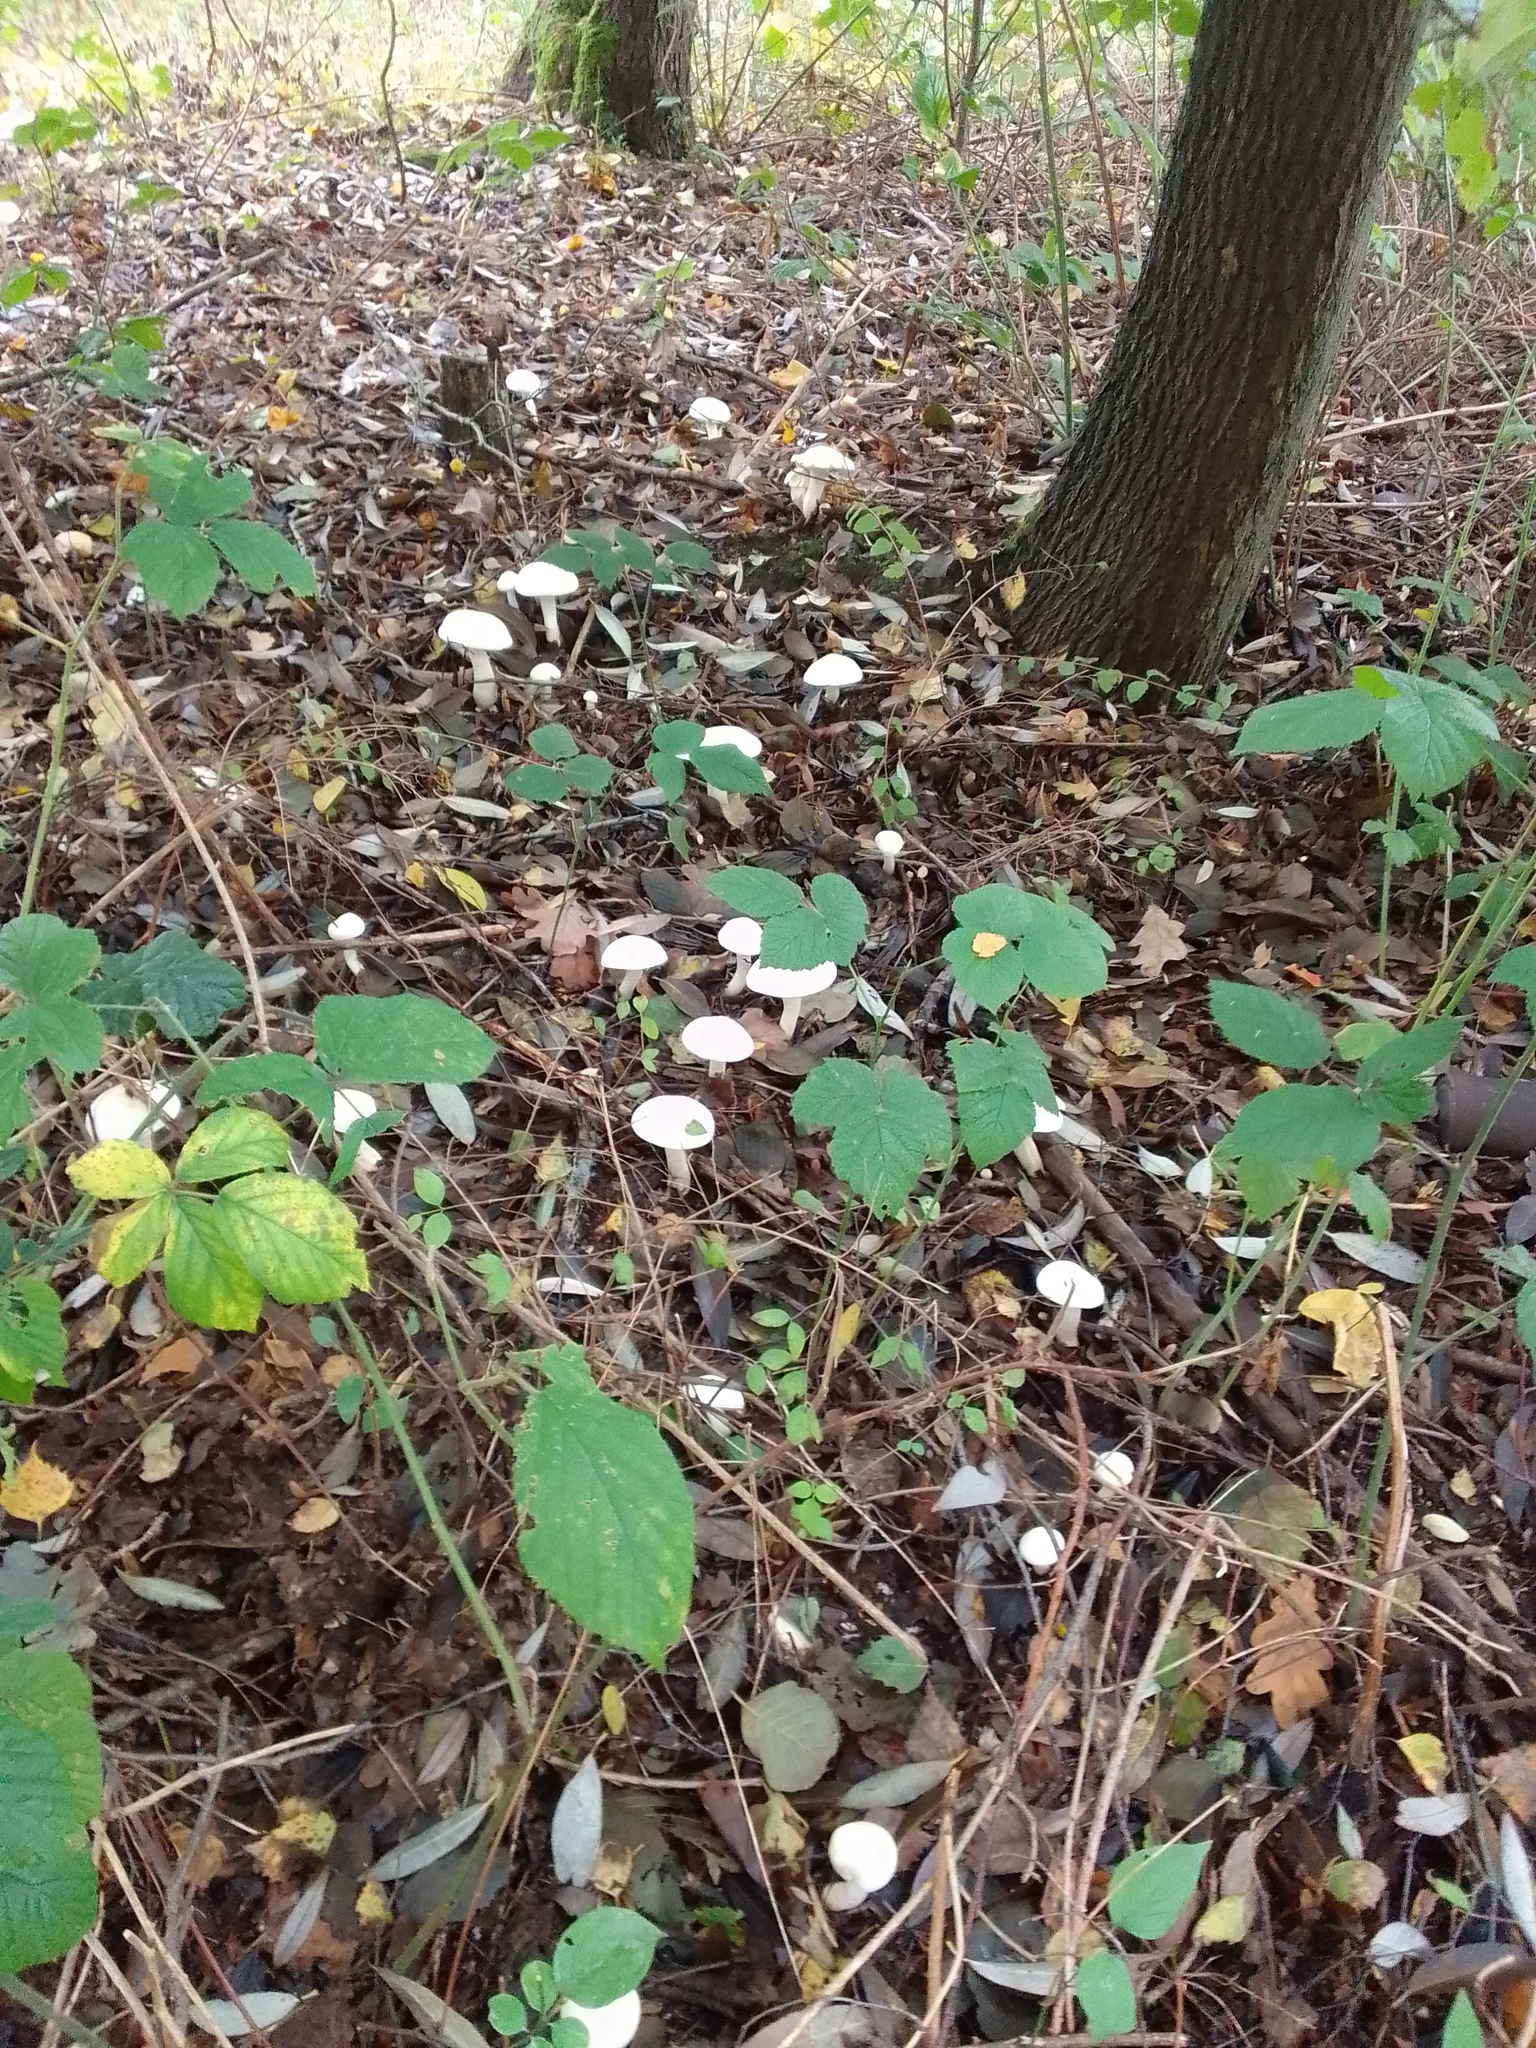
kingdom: Fungi
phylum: Basidiomycota
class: Agaricomycetes
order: Agaricales
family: Tricholomataceae
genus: Tricholoma
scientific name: Tricholoma stiparophyllum
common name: Chemical knight
